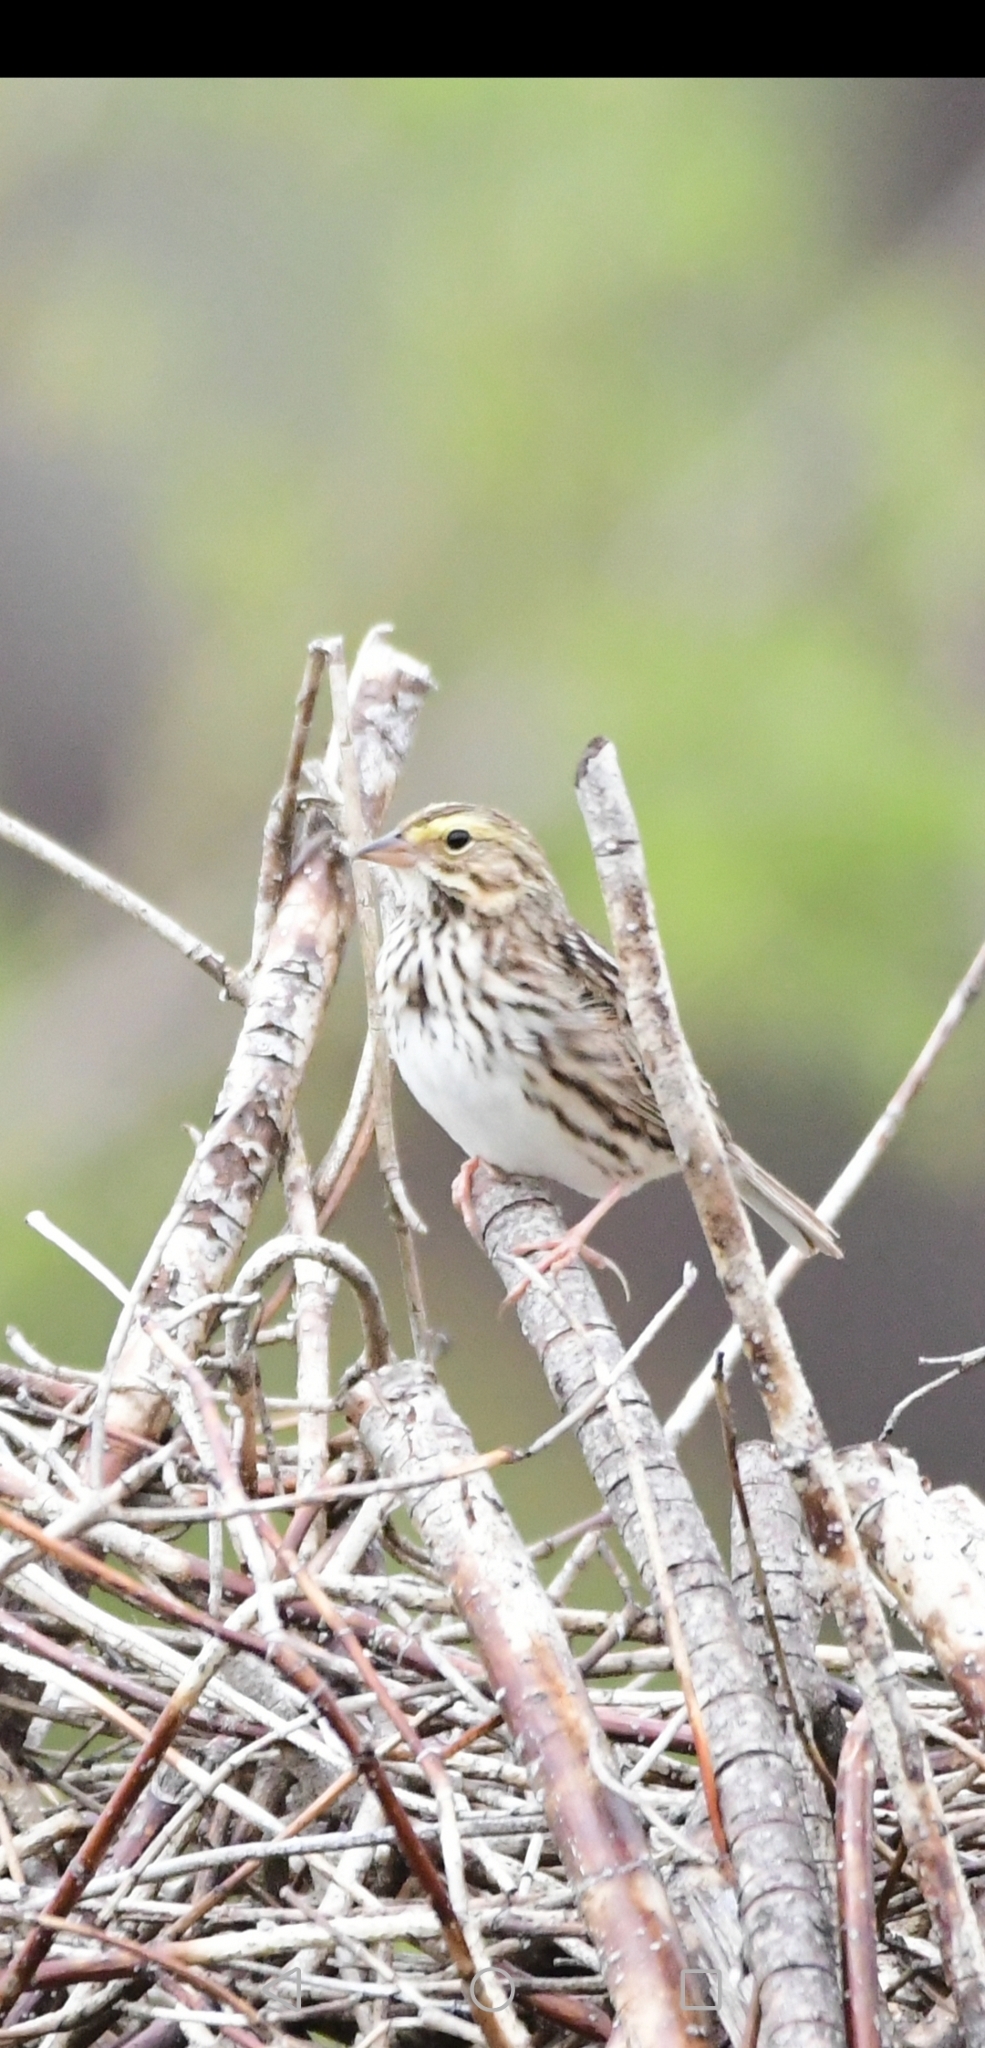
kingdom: Animalia
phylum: Chordata
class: Aves
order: Passeriformes
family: Passerellidae
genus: Passerculus
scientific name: Passerculus sandwichensis
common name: Savannah sparrow
